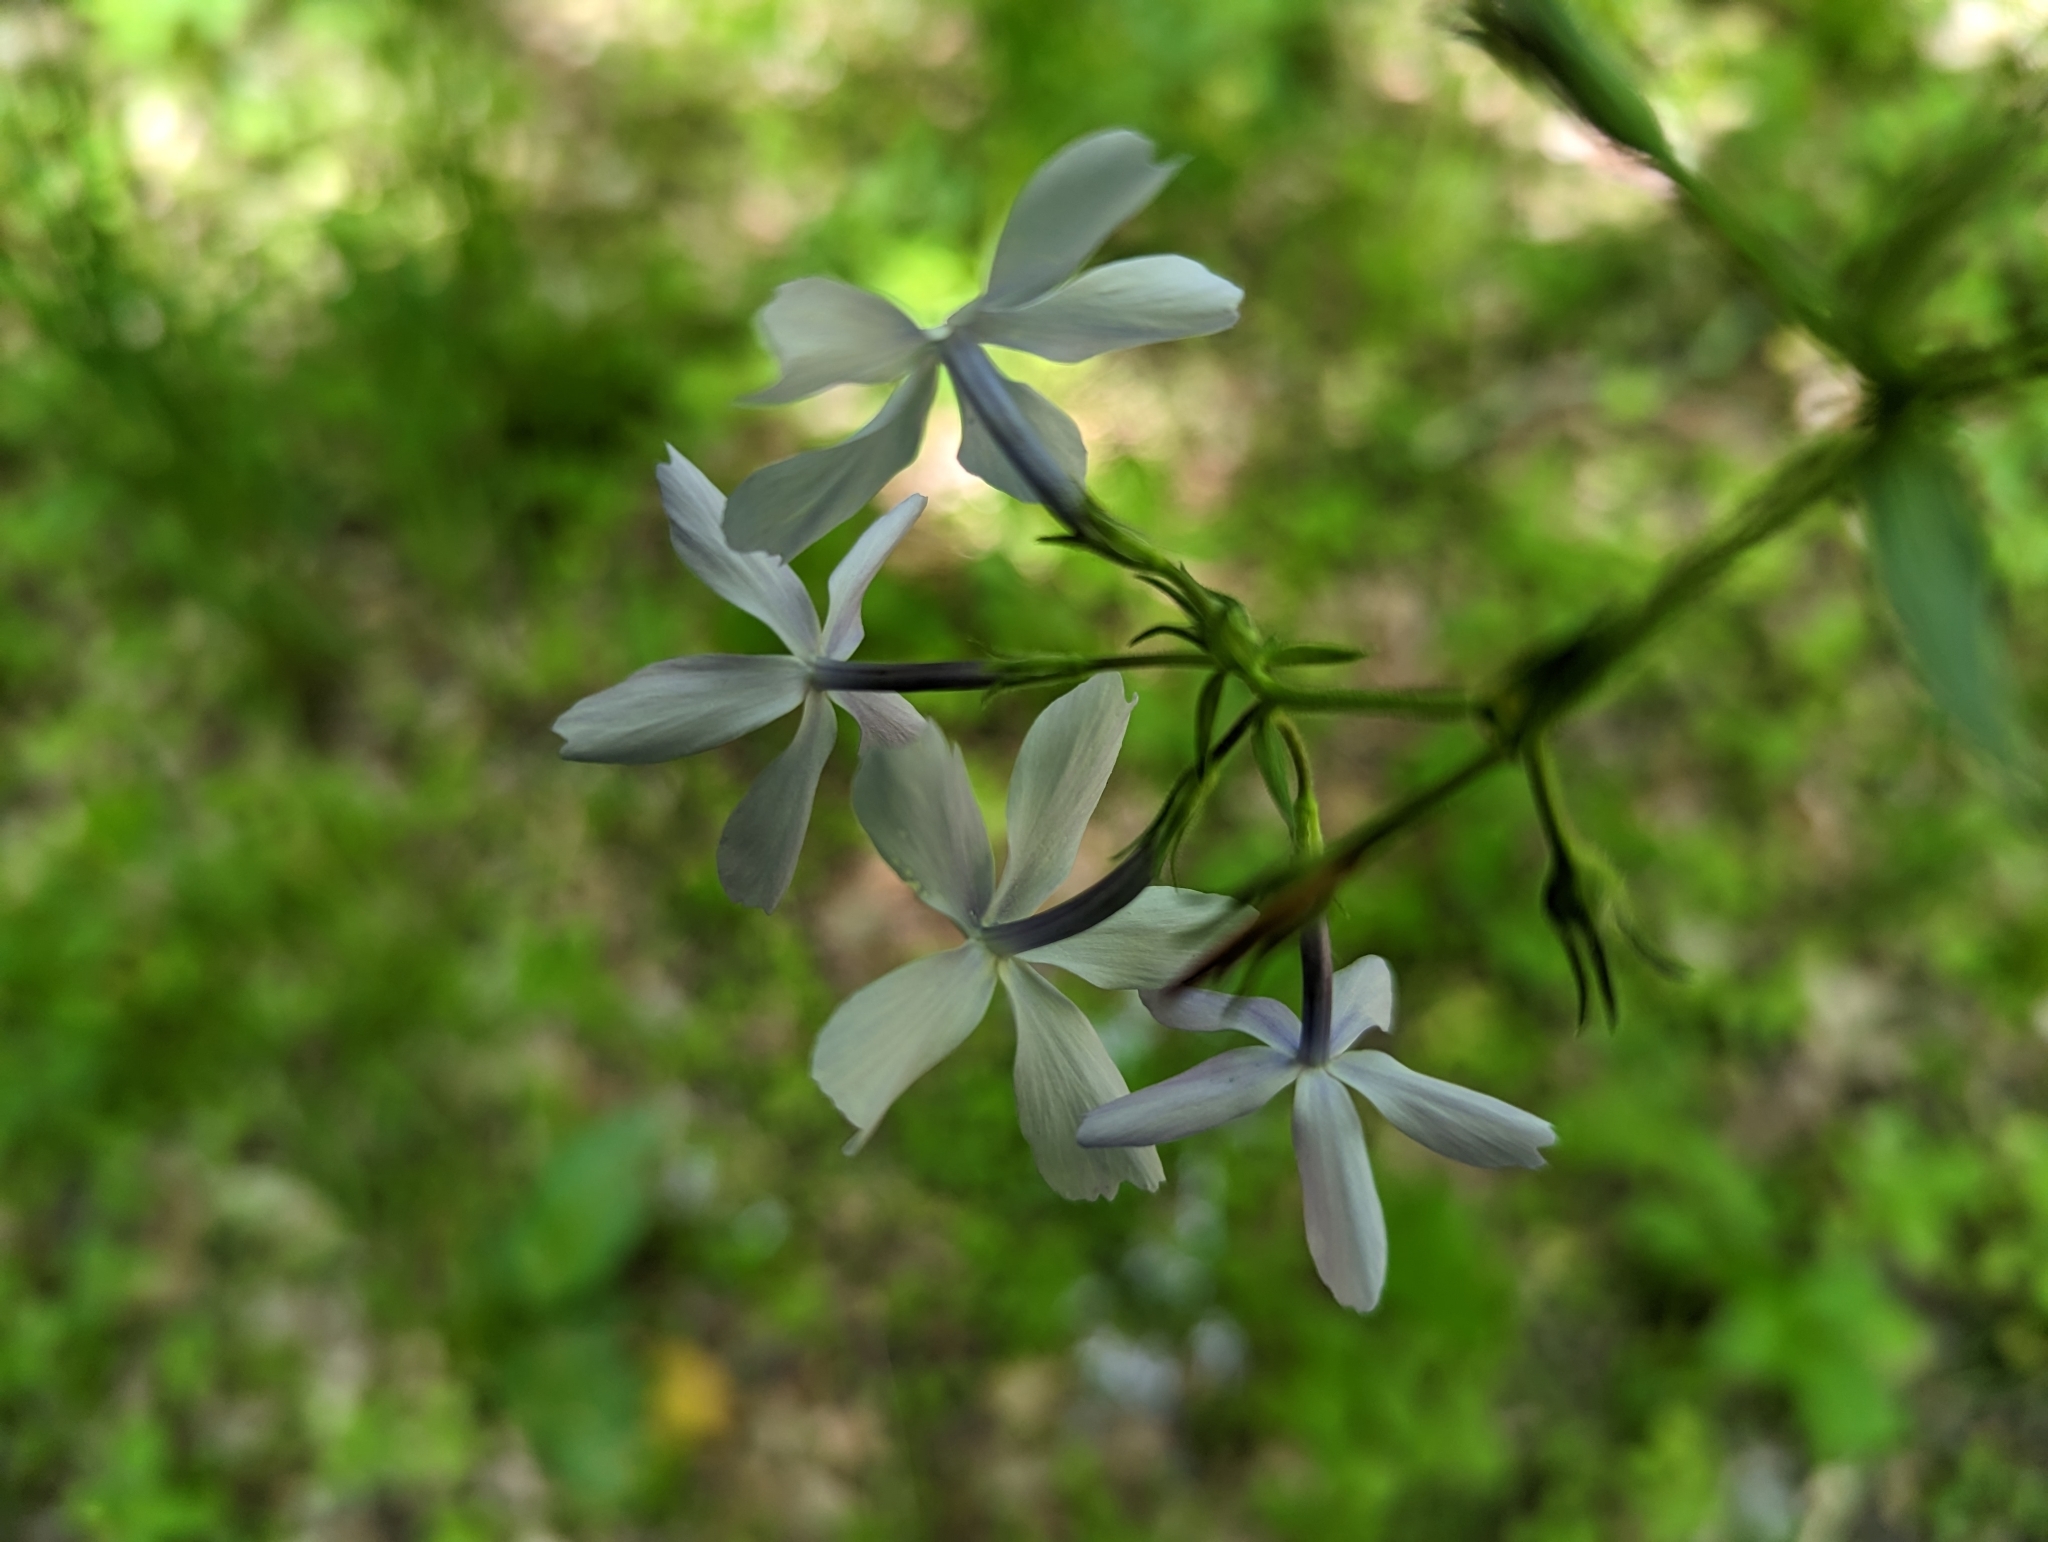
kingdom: Plantae
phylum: Tracheophyta
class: Magnoliopsida
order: Ericales
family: Polemoniaceae
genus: Phlox
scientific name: Phlox divaricata
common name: Blue phlox
